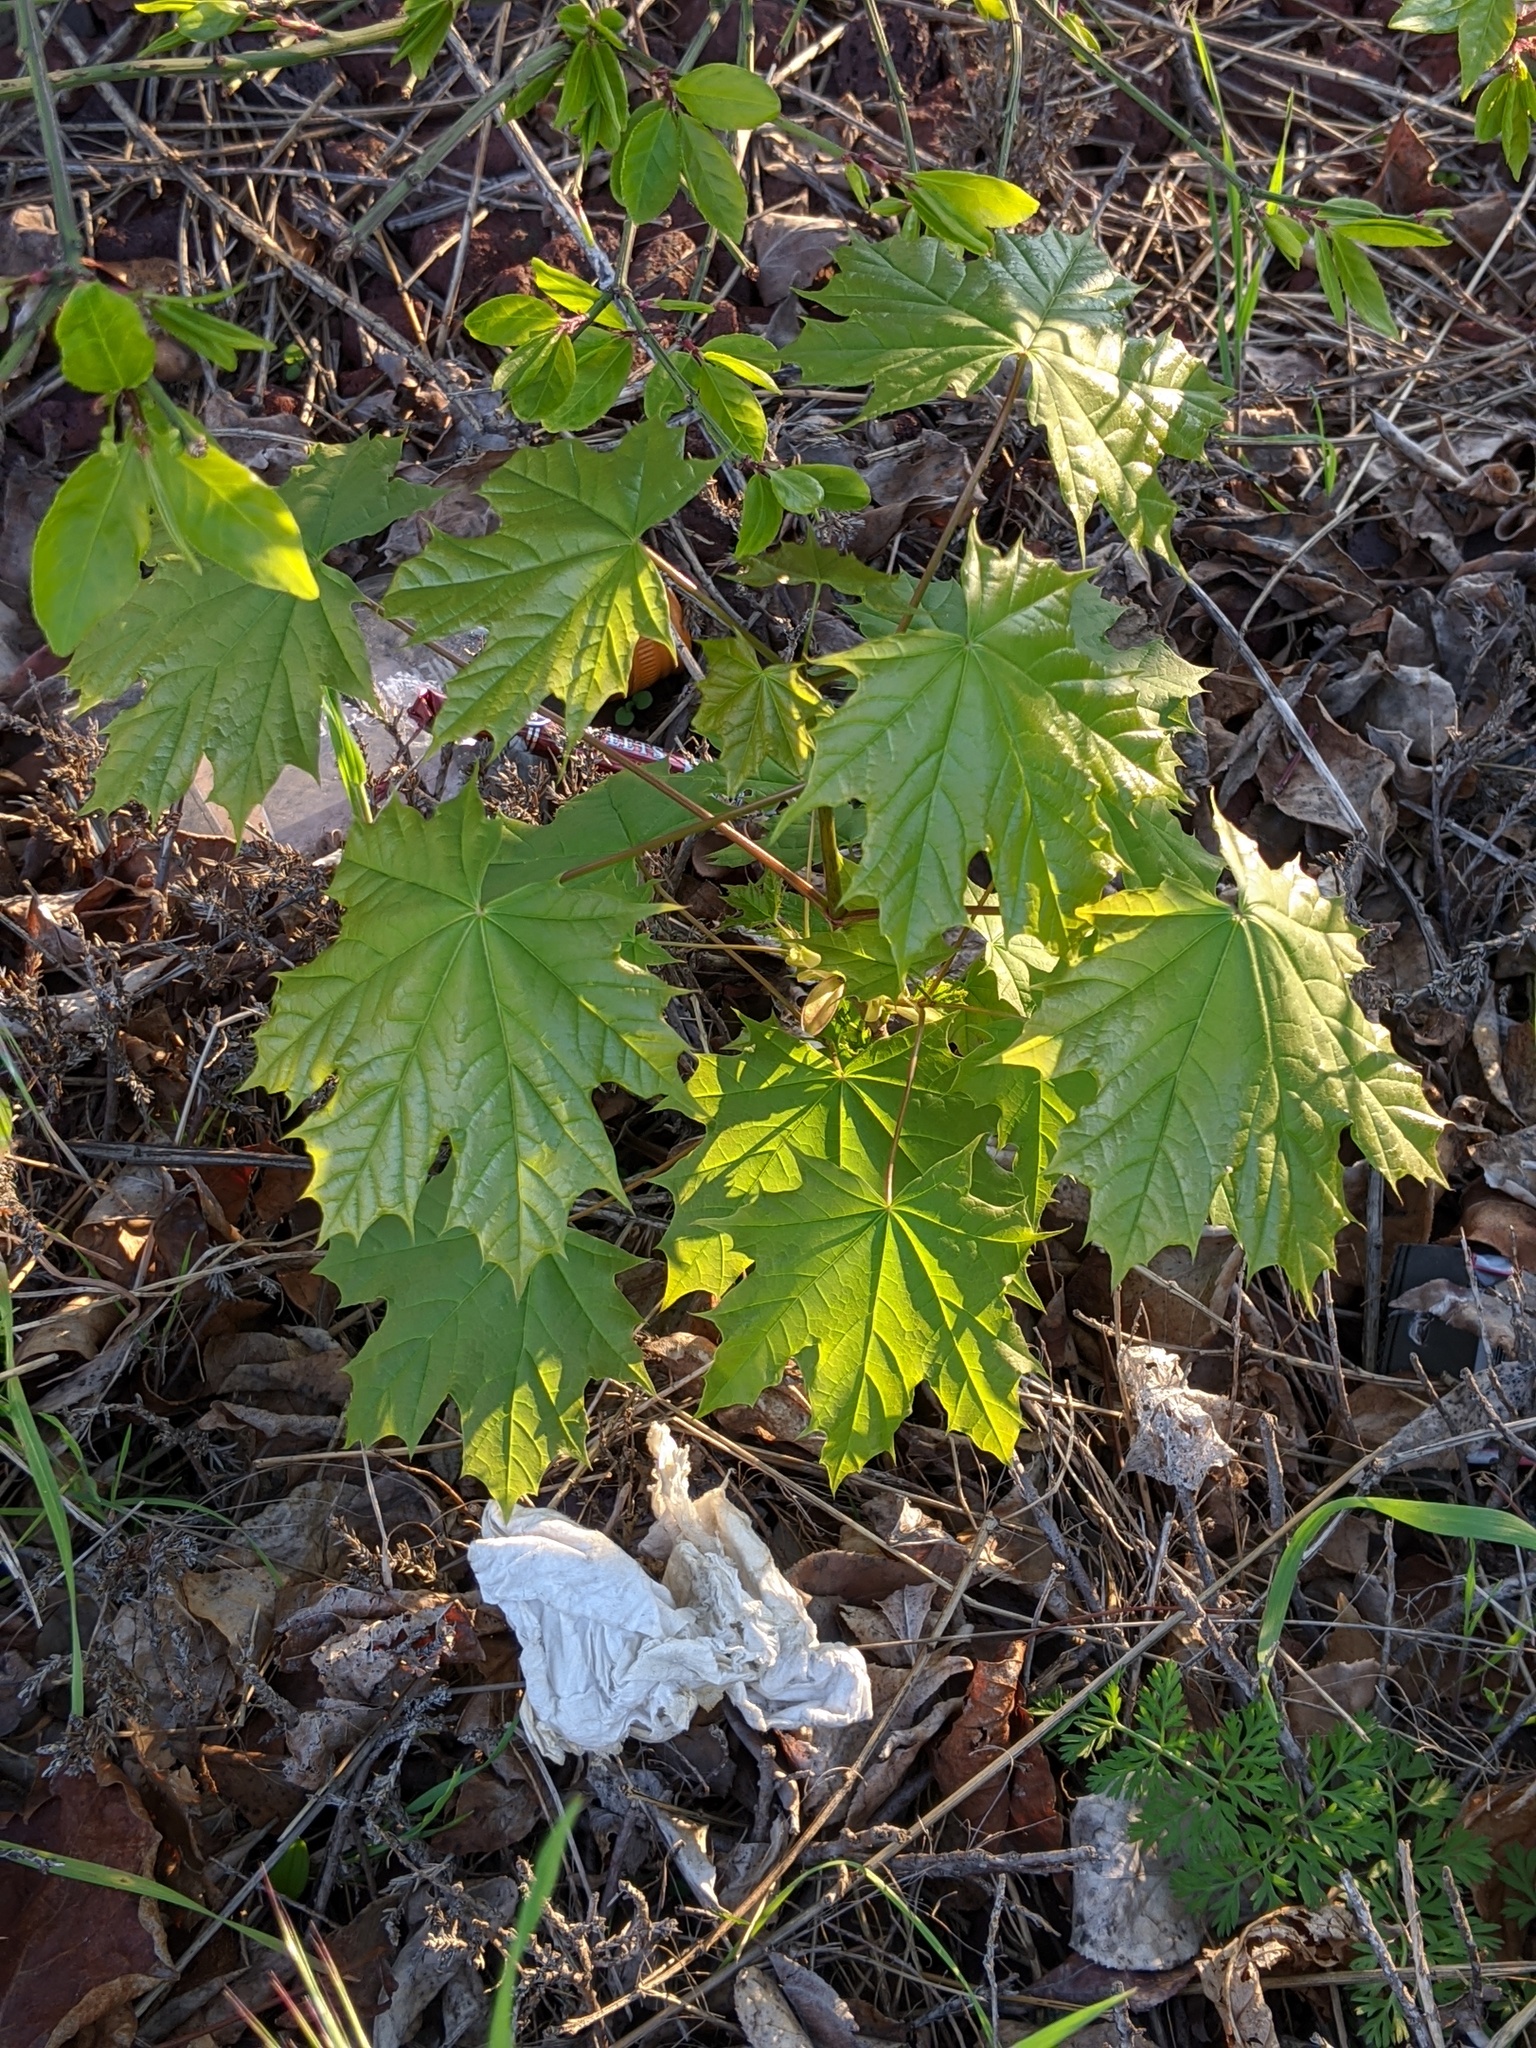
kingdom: Plantae
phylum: Tracheophyta
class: Magnoliopsida
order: Sapindales
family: Sapindaceae
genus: Acer
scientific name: Acer platanoides
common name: Norway maple
